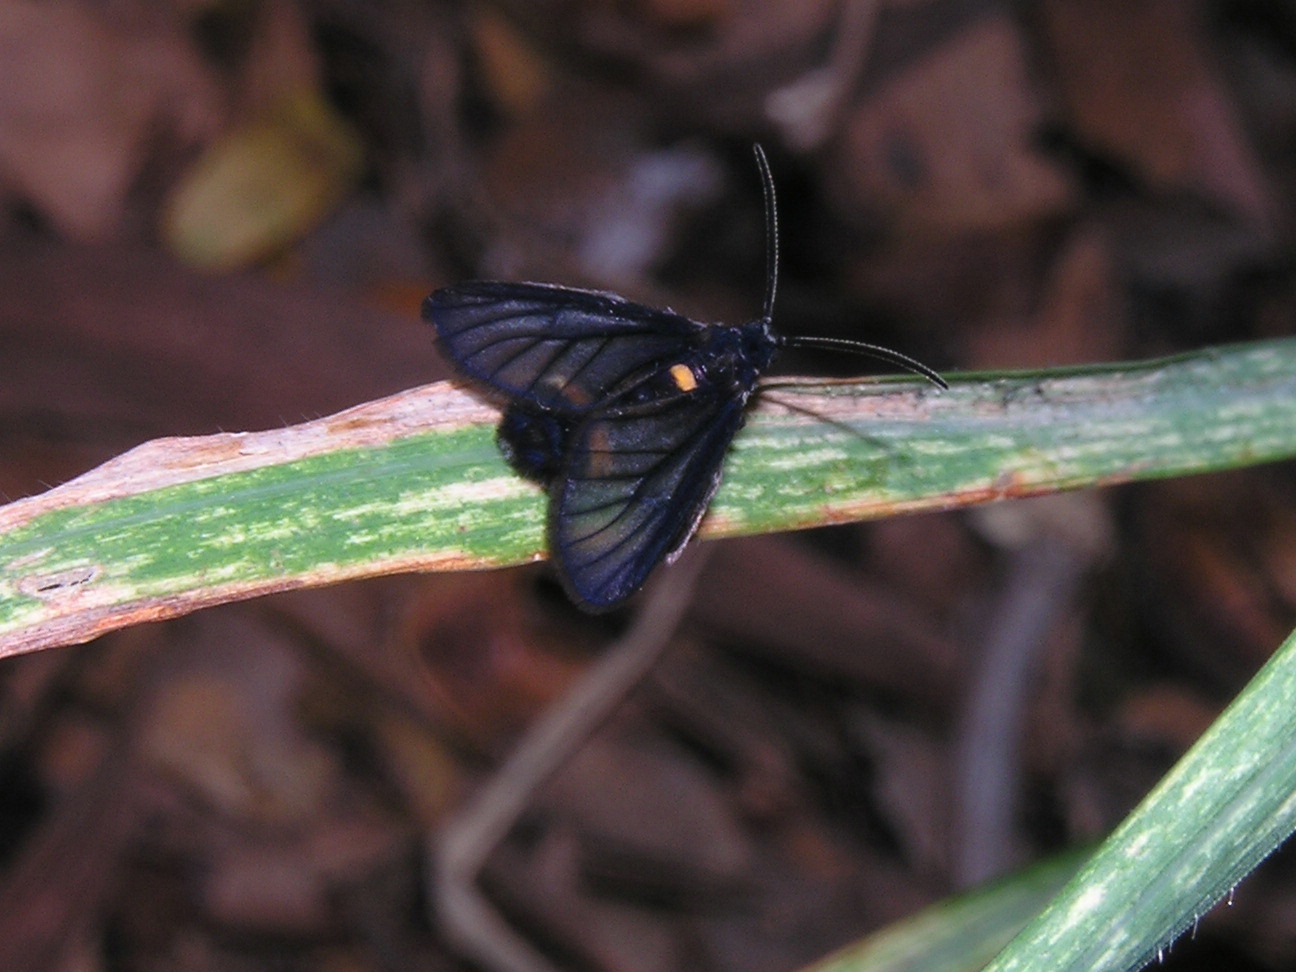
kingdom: Animalia
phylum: Arthropoda
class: Insecta
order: Lepidoptera
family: Erebidae
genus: Psichotoe
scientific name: Psichotoe duvauceli
